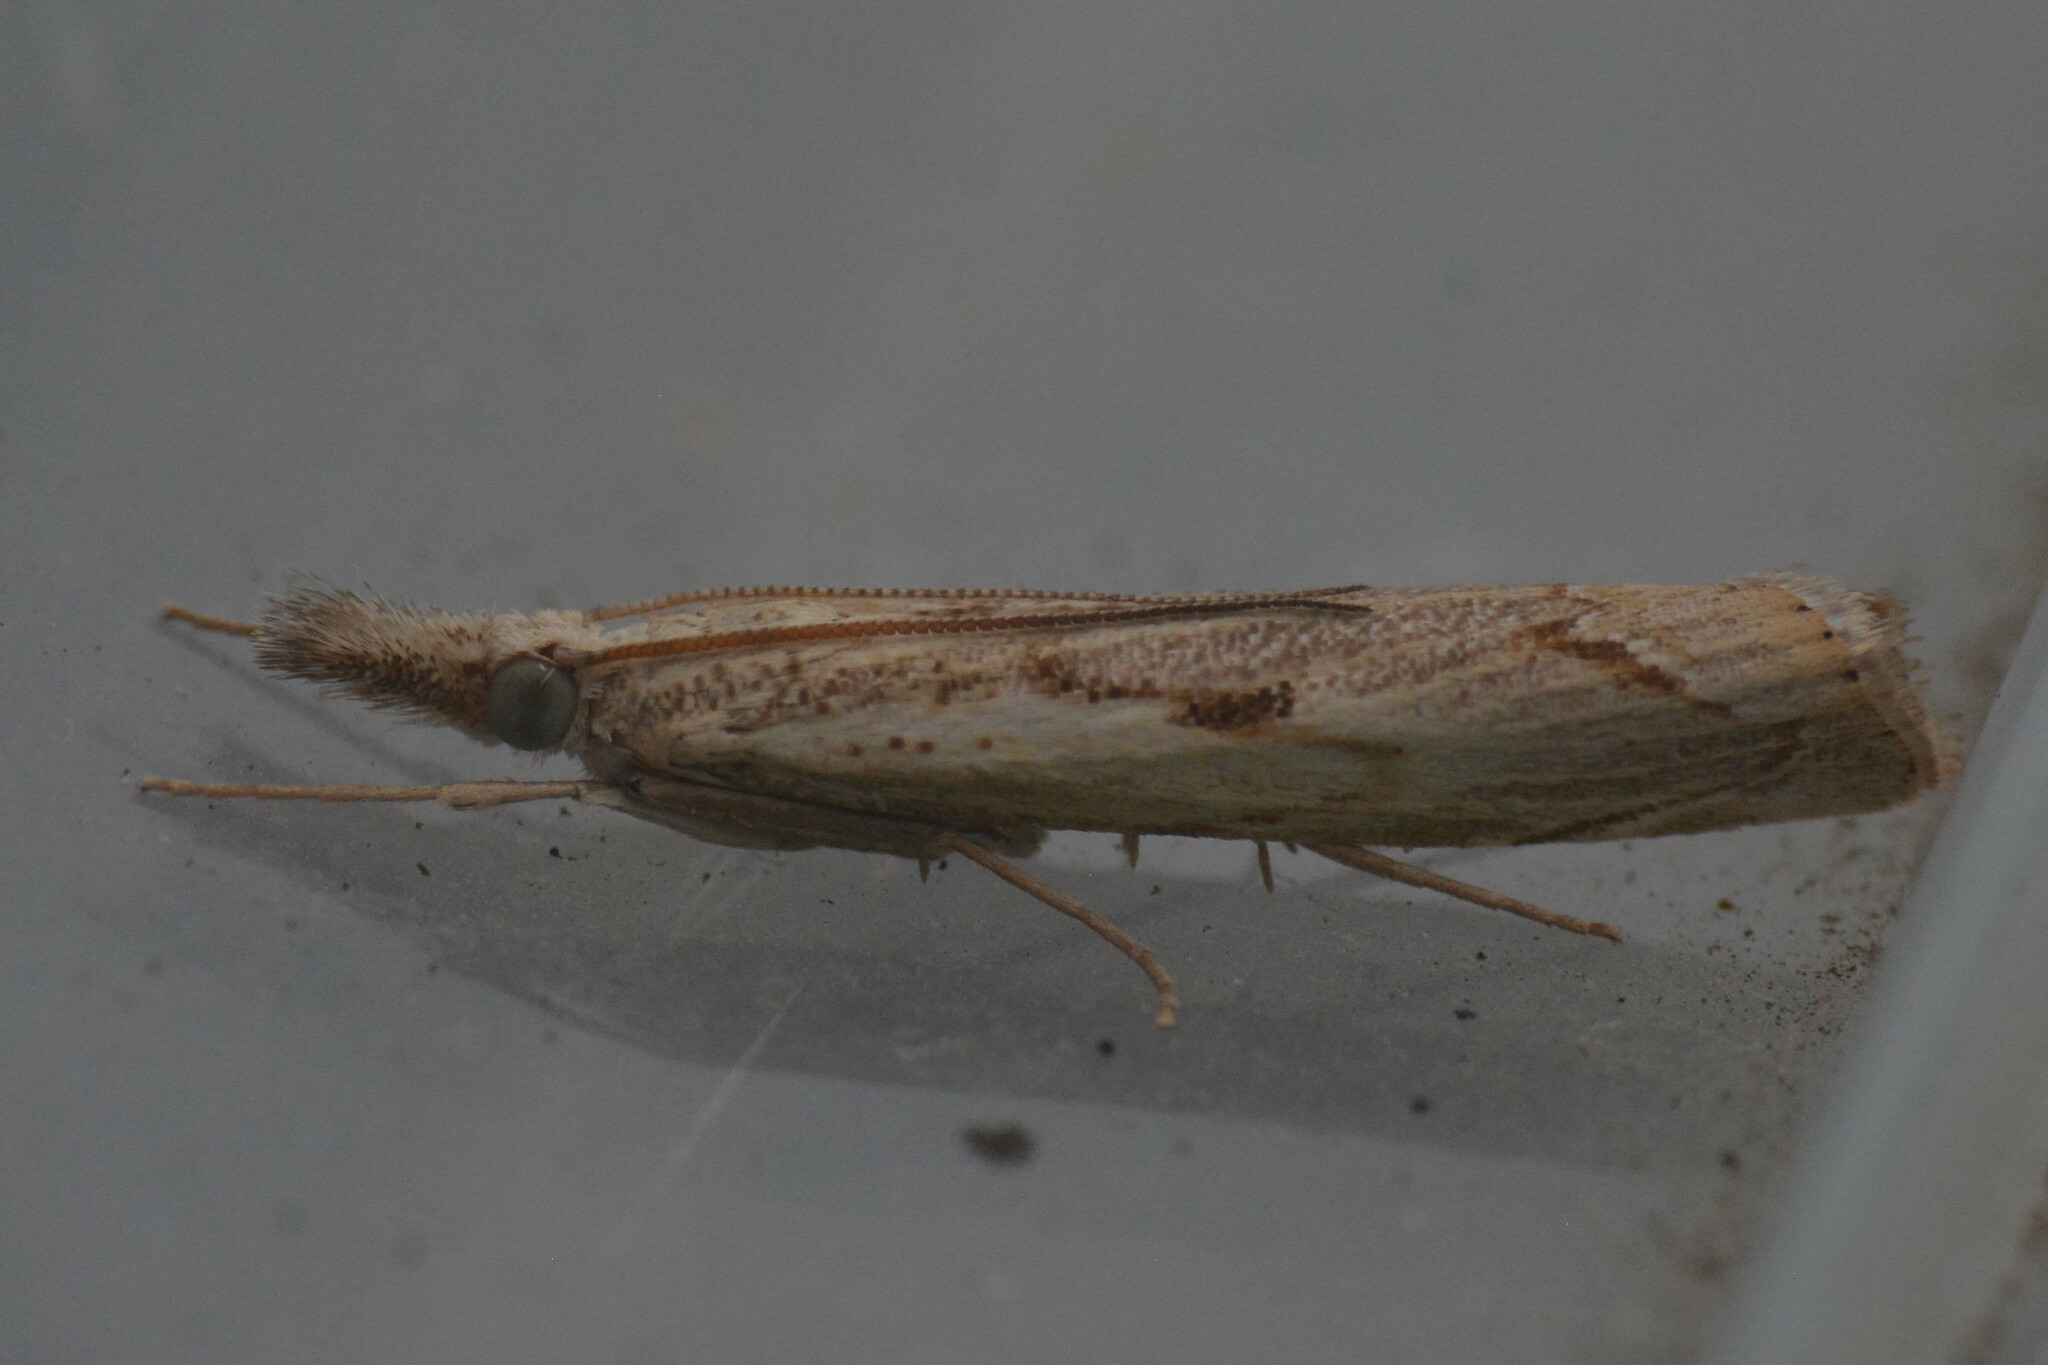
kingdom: Animalia
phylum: Arthropoda
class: Insecta
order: Lepidoptera
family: Crambidae
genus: Agriphila
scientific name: Agriphila geniculea
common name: Elbow-stripe grass-veneer
